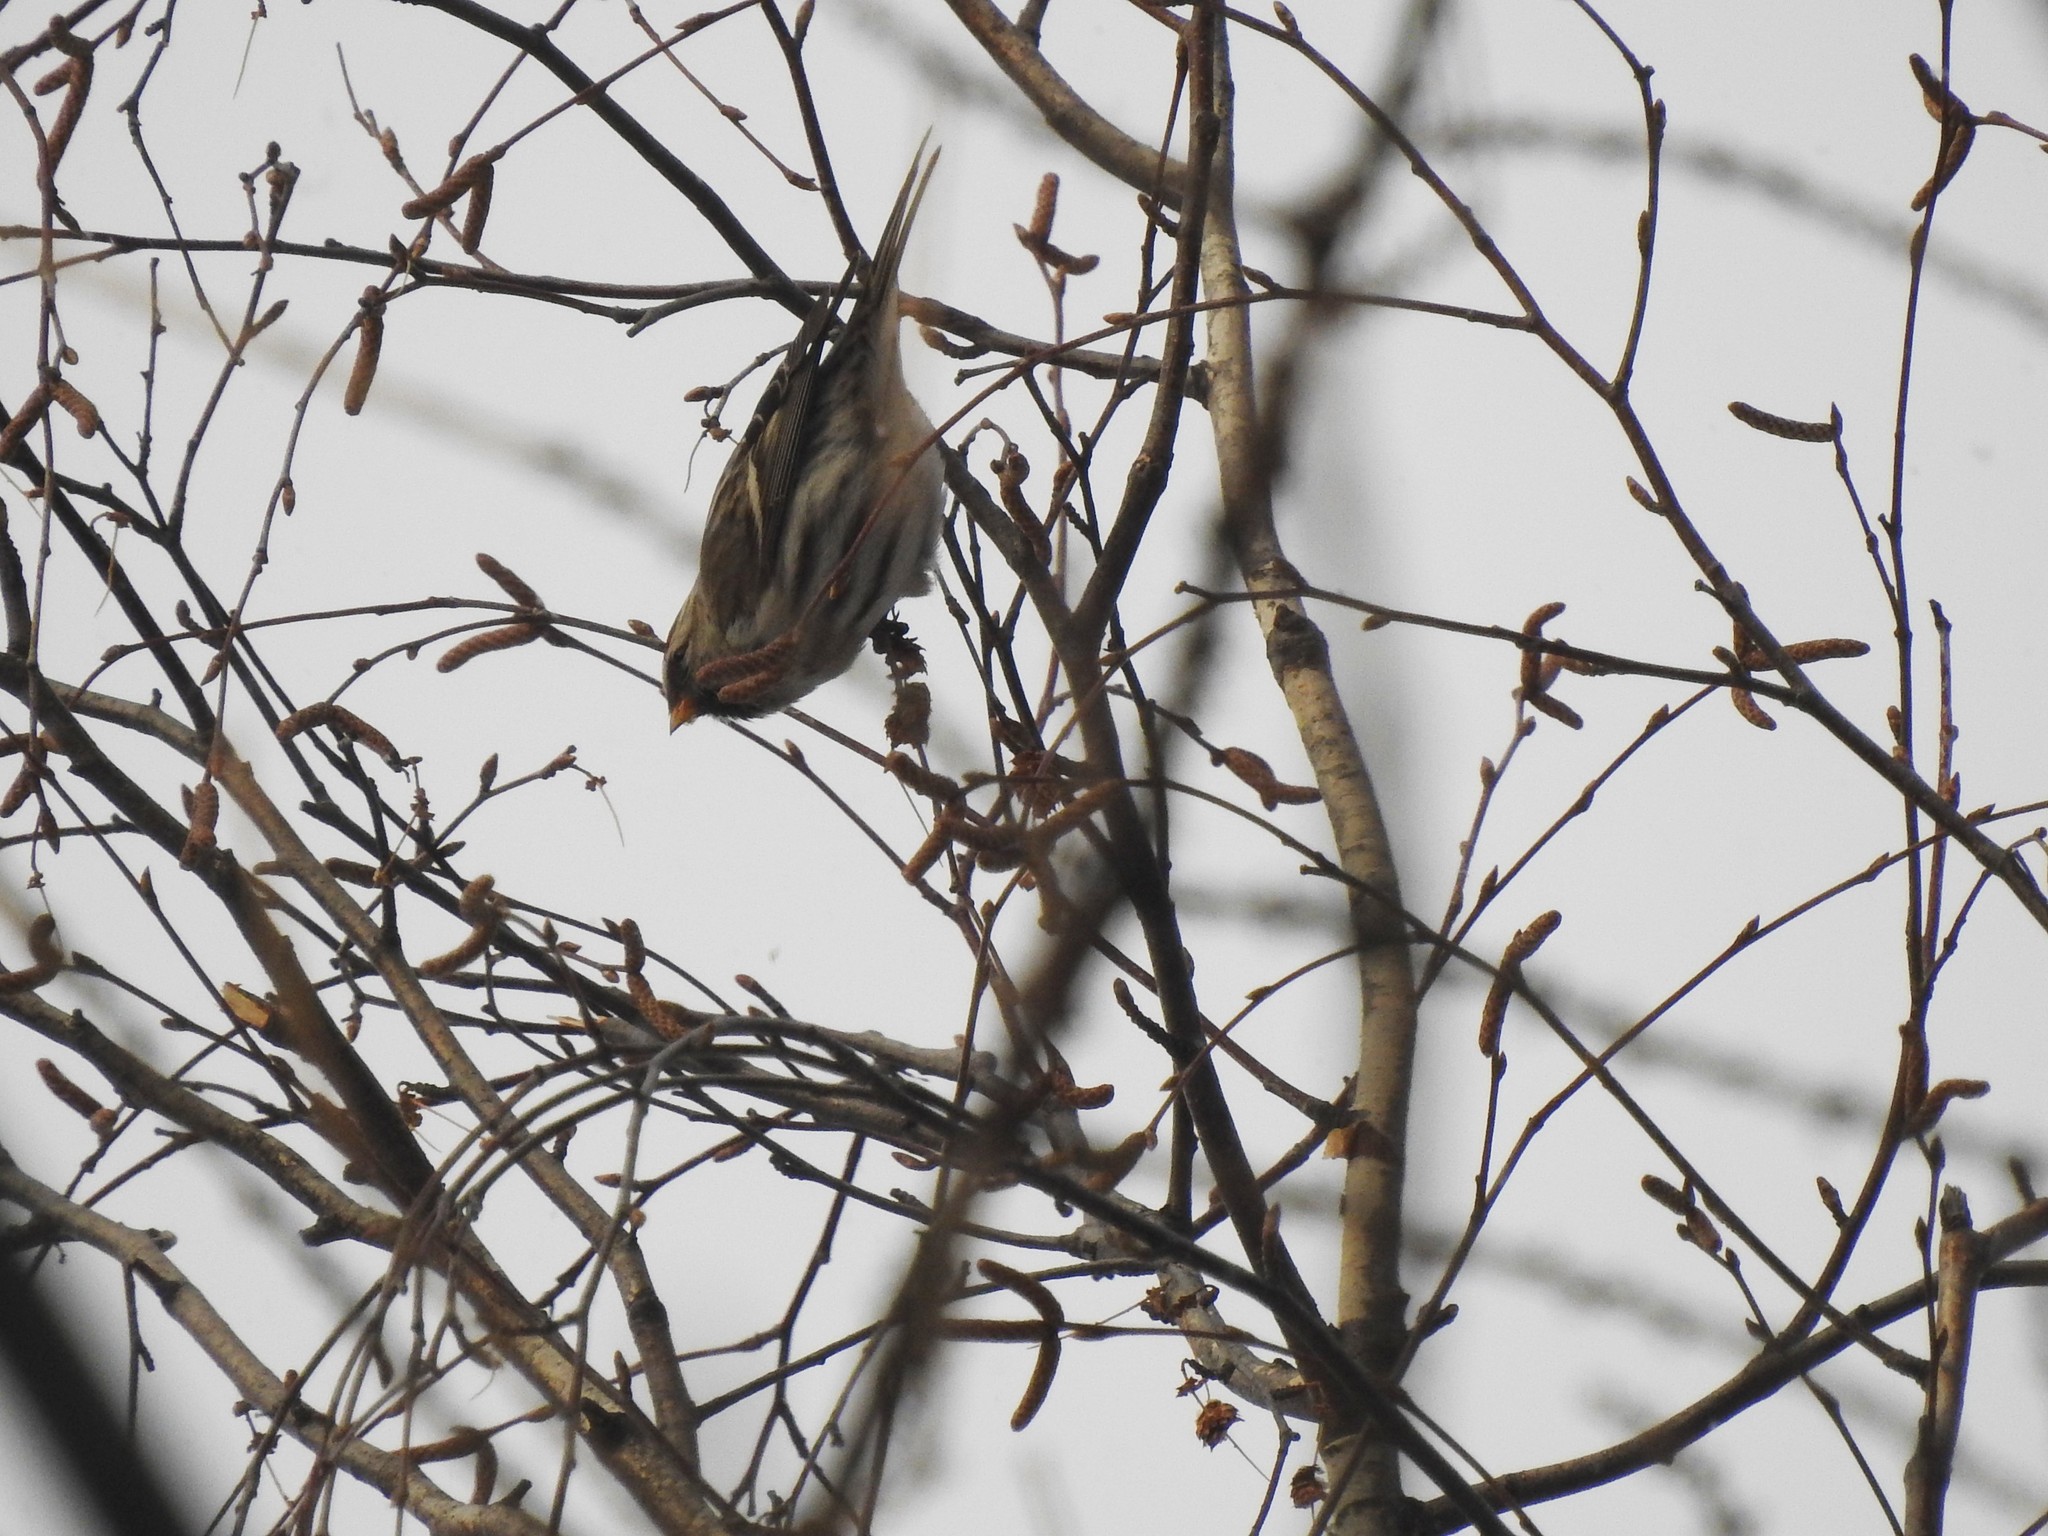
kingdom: Animalia
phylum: Chordata
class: Aves
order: Passeriformes
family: Fringillidae
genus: Acanthis
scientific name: Acanthis flammea
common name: Common redpoll
